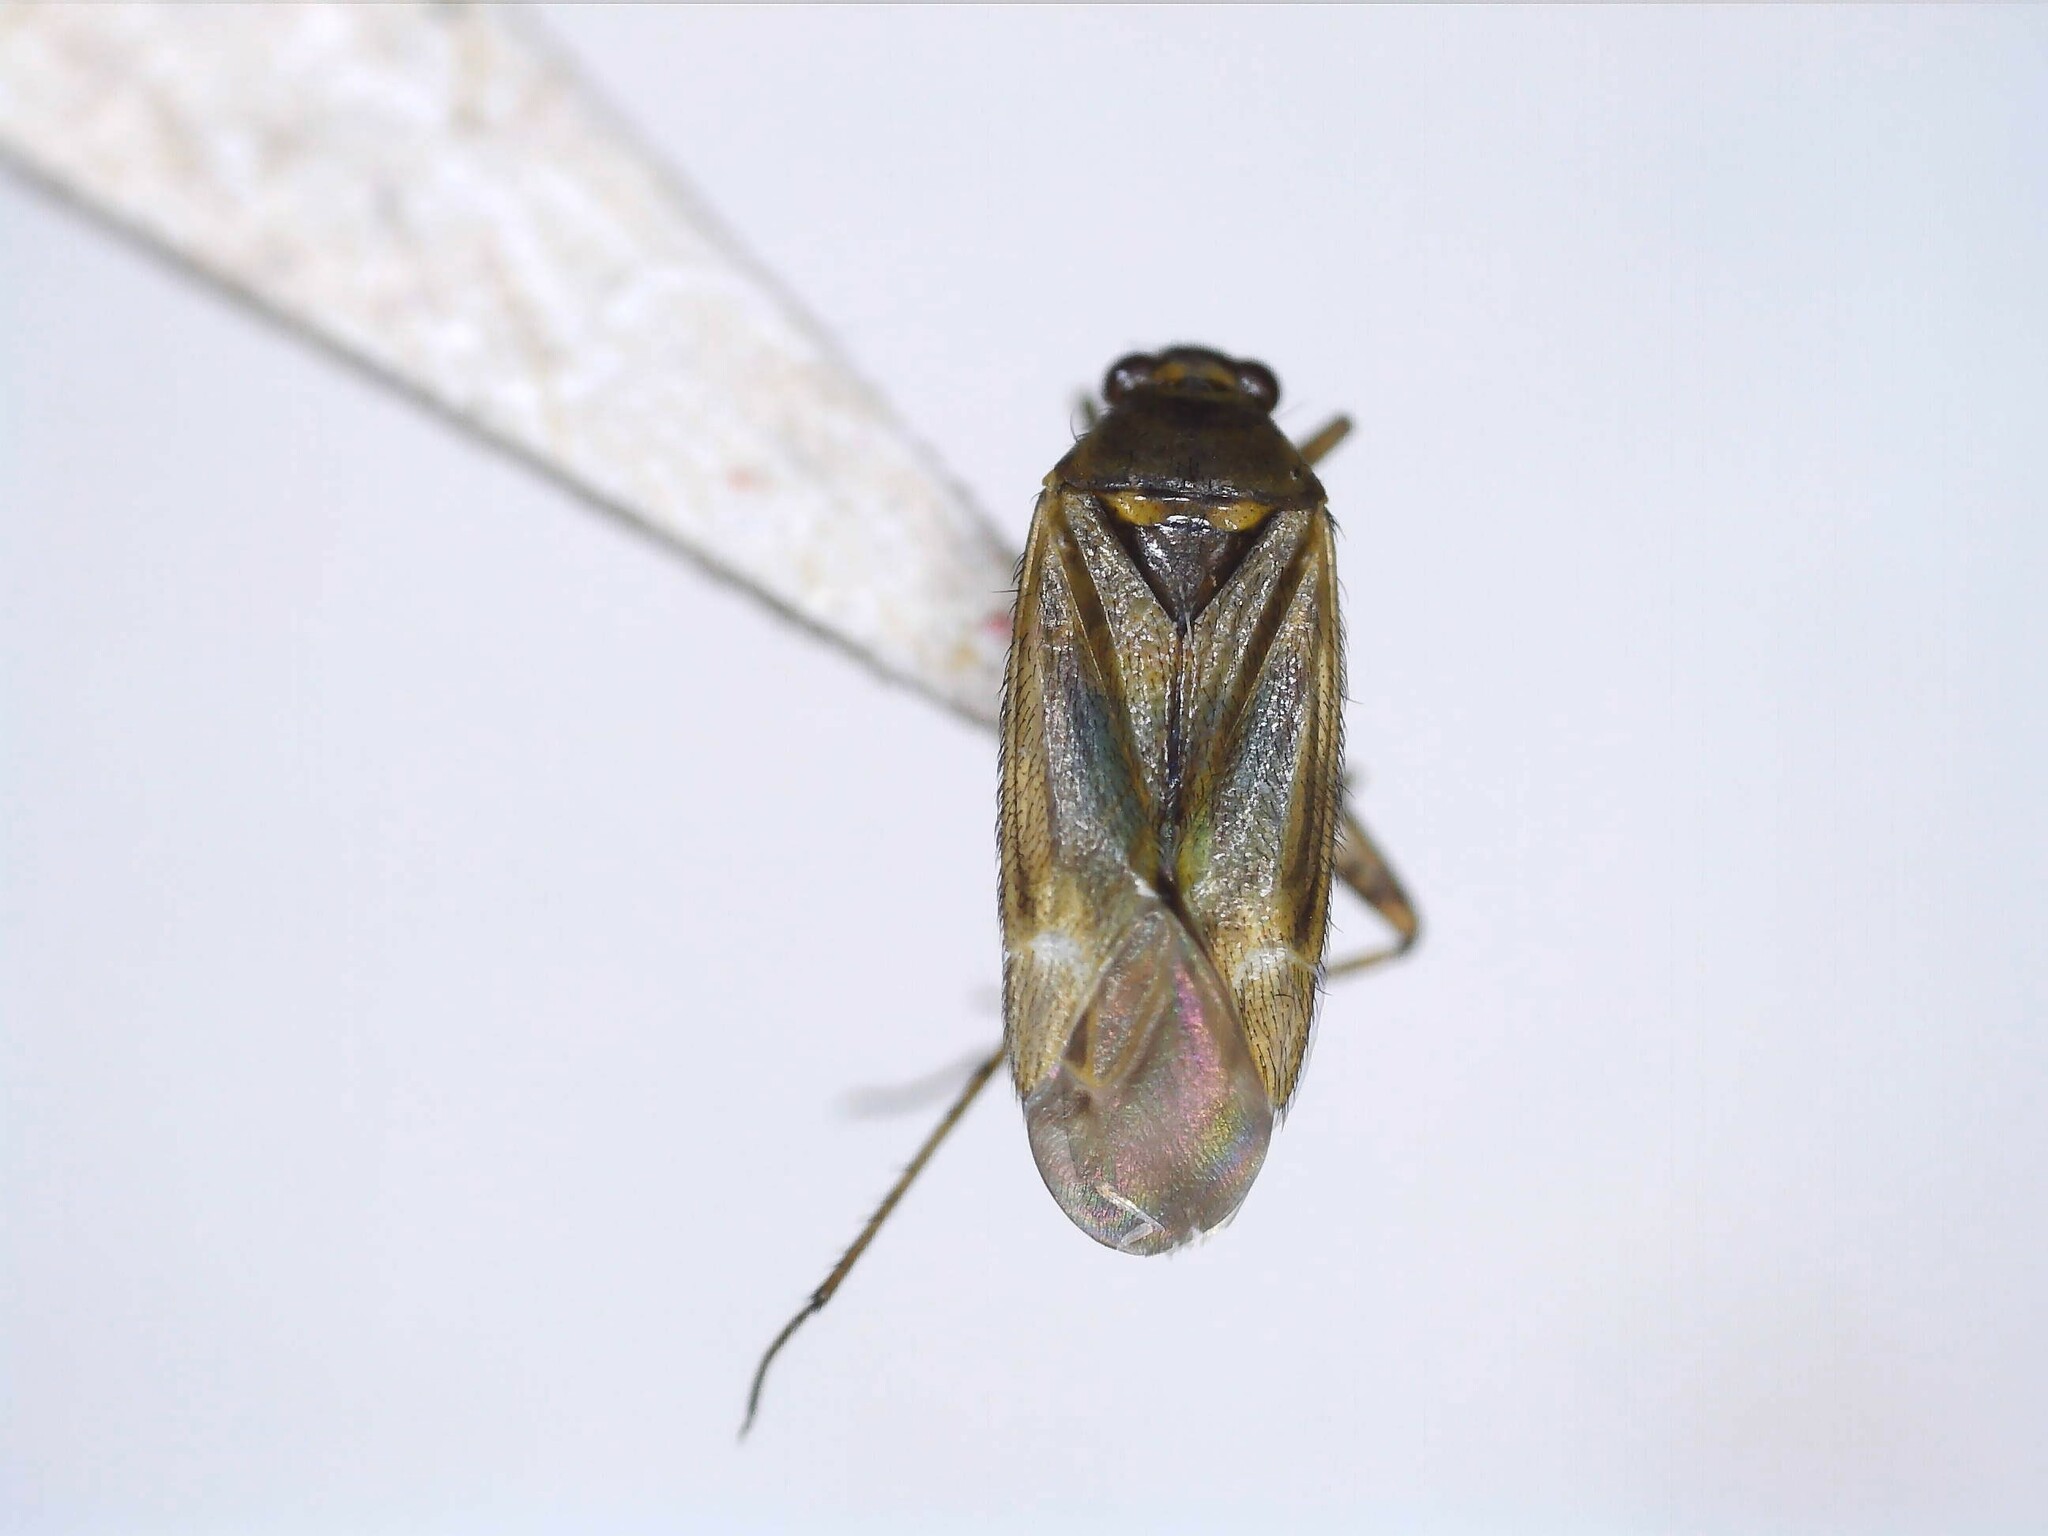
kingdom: Animalia
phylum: Arthropoda
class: Insecta
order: Hemiptera
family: Miridae
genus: Plagiognathus
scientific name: Plagiognathus chrysanthemi
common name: Plant bug
